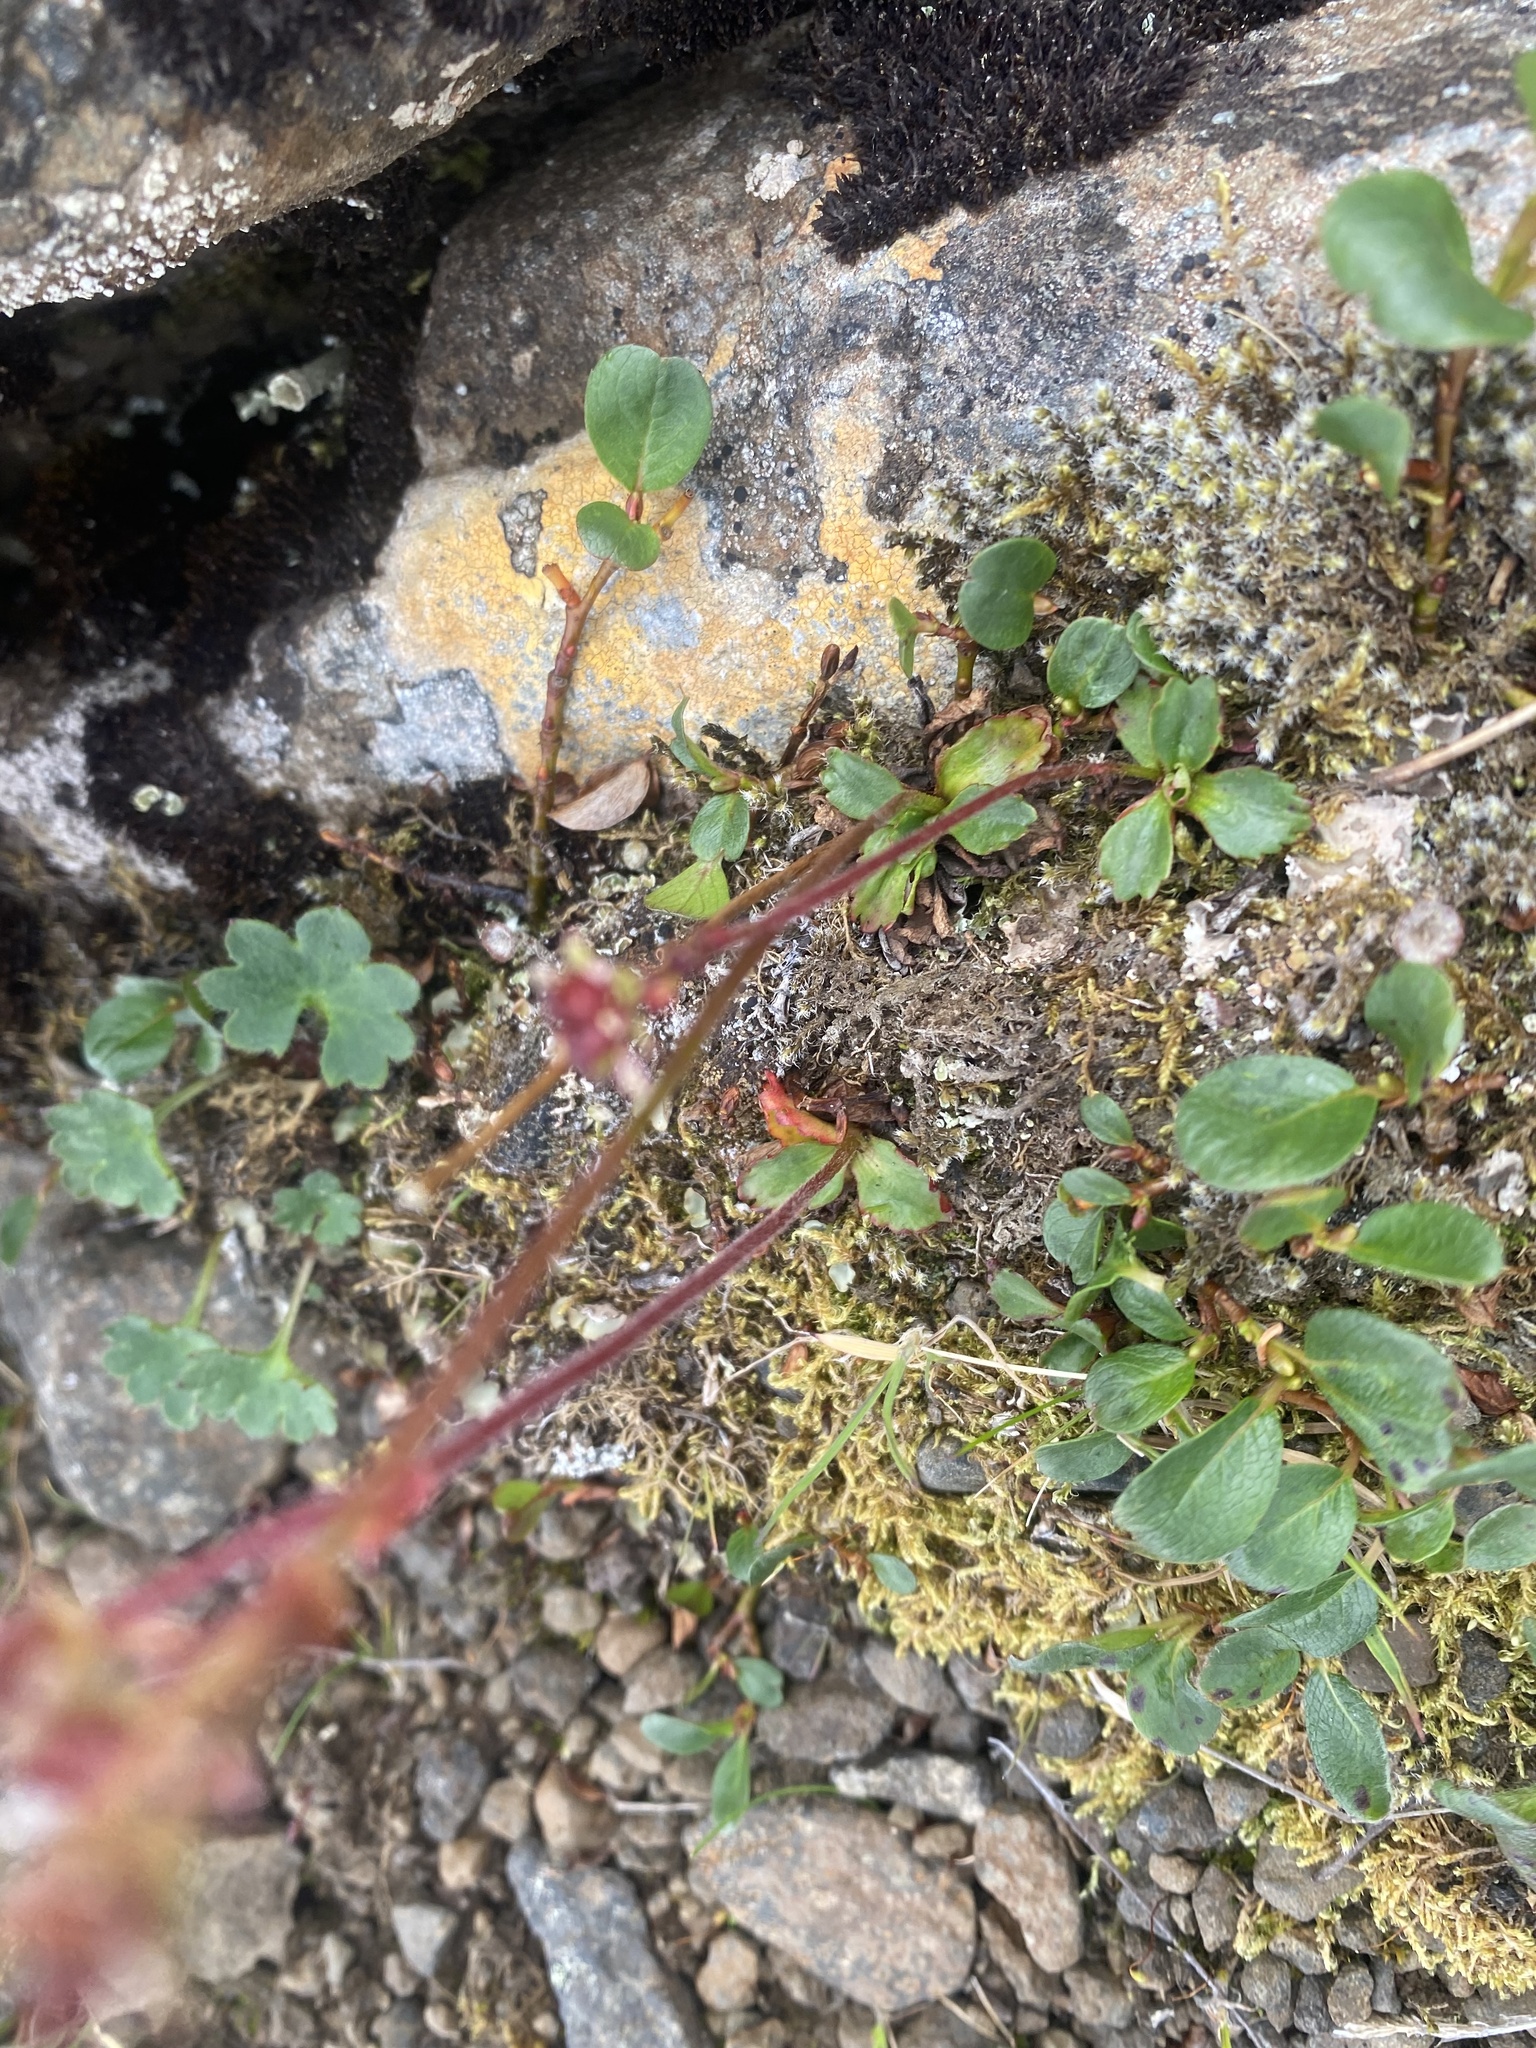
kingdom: Plantae
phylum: Tracheophyta
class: Magnoliopsida
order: Saxifragales
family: Saxifragaceae
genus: Micranthes
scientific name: Micranthes nivalis
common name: Alpine saxifrage
